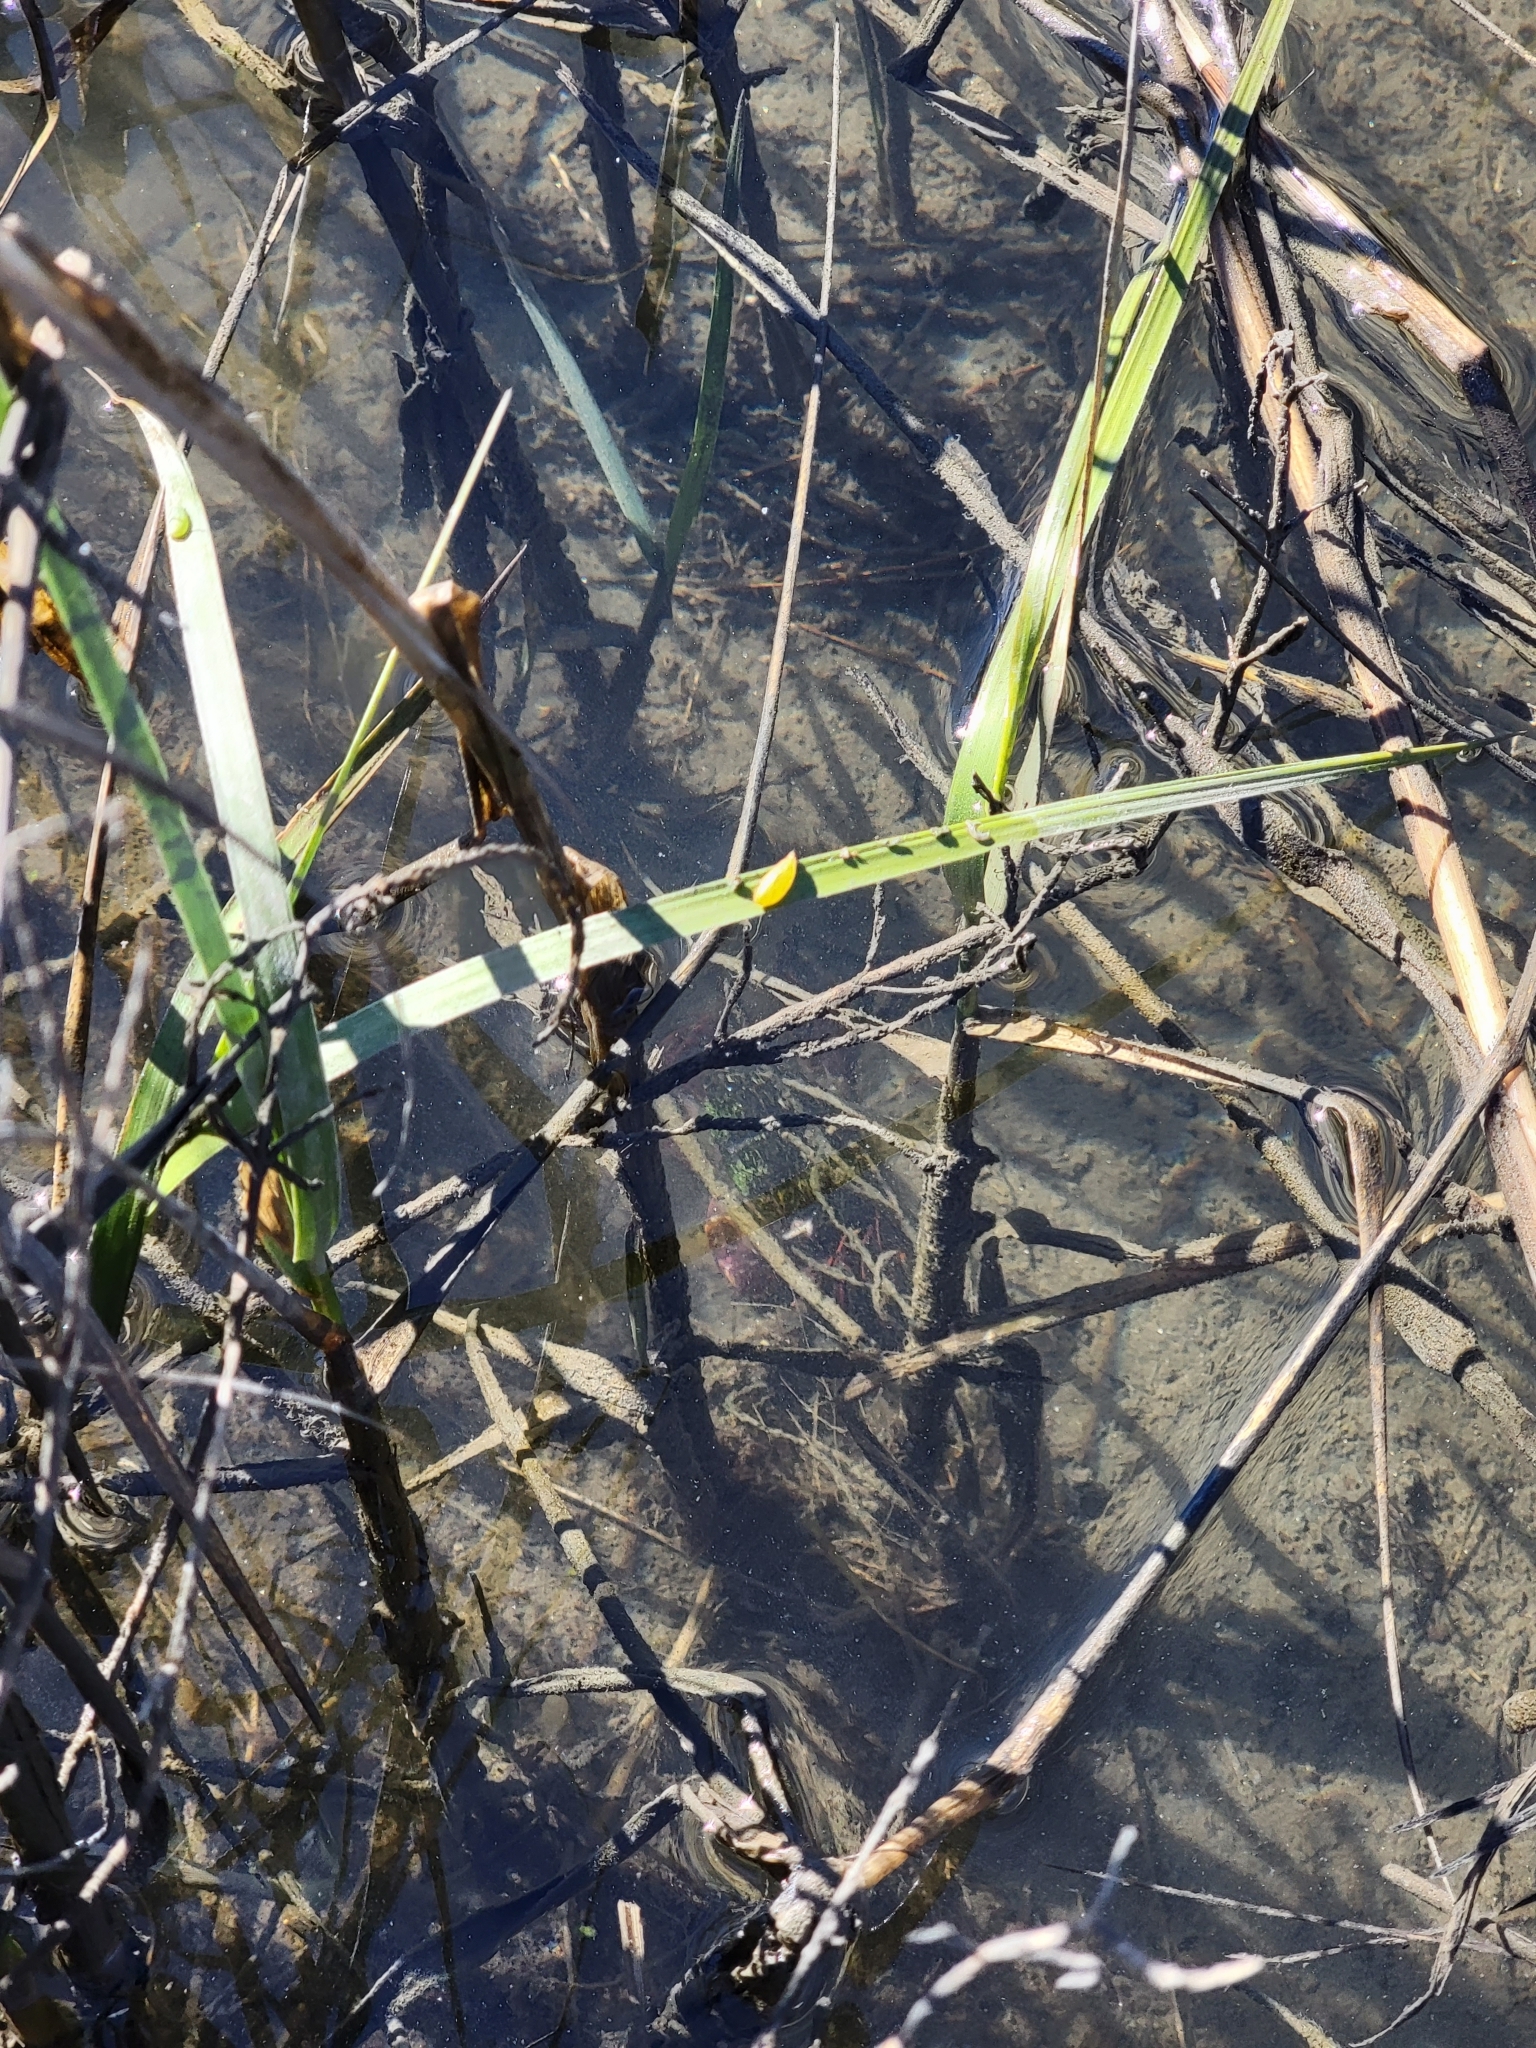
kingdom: Animalia
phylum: Arthropoda
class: Malacostraca
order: Decapoda
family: Grapsidae
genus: Pachygrapsus
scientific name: Pachygrapsus crassipes
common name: Striped shore crab
